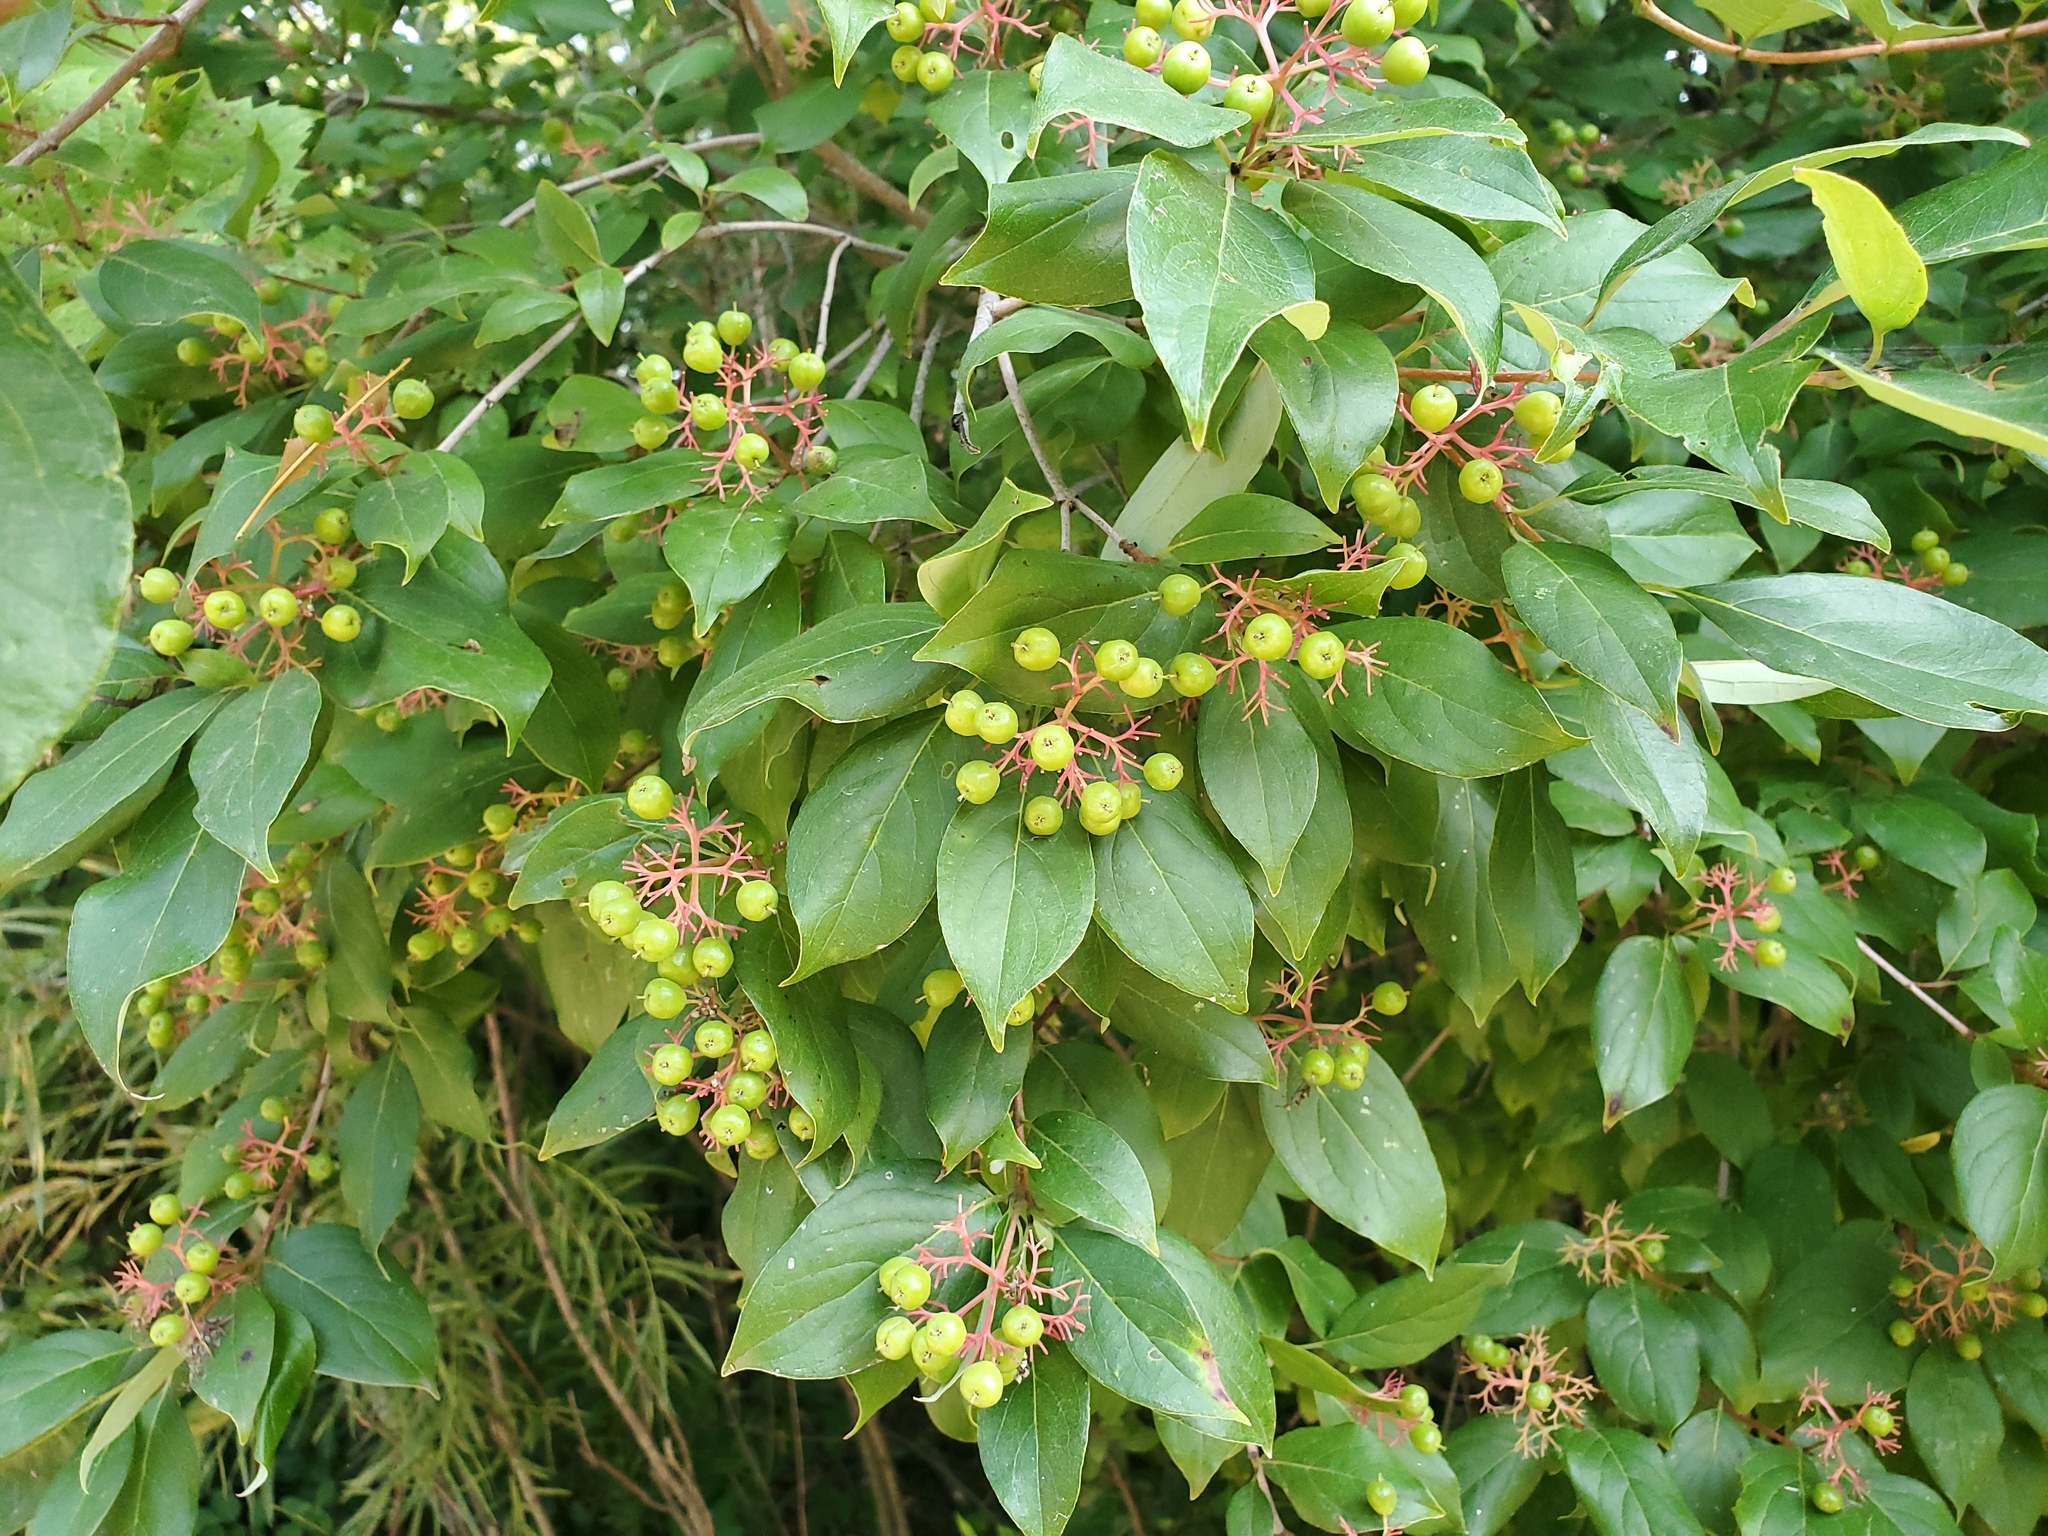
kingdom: Plantae
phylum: Tracheophyta
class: Magnoliopsida
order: Cornales
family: Cornaceae
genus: Cornus
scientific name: Cornus racemosa
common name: Panicled dogwood
